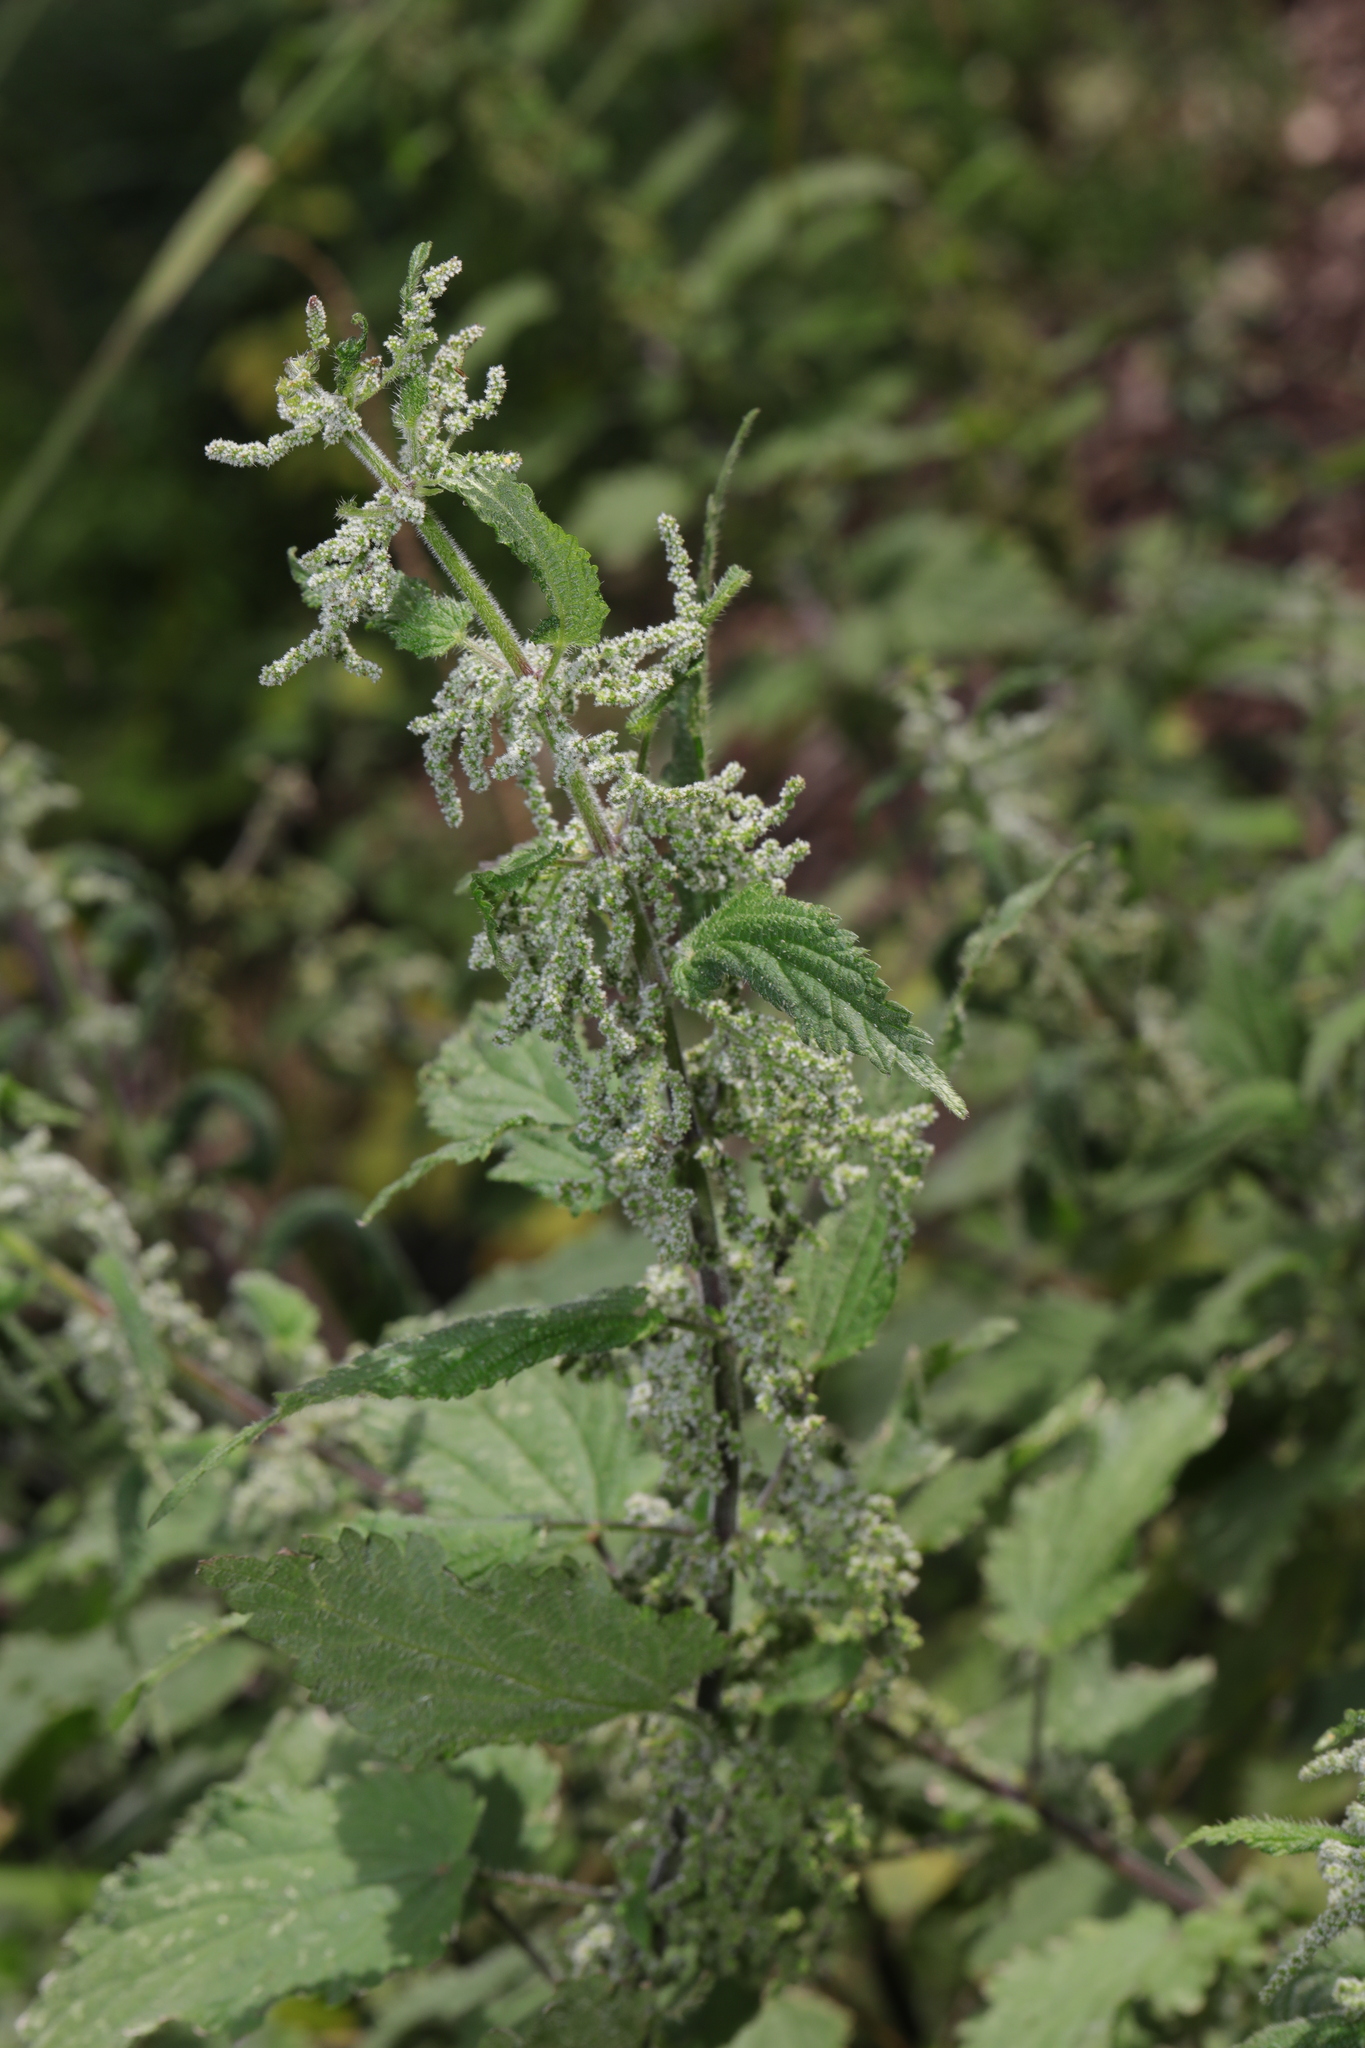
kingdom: Plantae
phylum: Tracheophyta
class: Magnoliopsida
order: Rosales
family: Urticaceae
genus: Urtica
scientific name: Urtica dioica
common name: Common nettle
